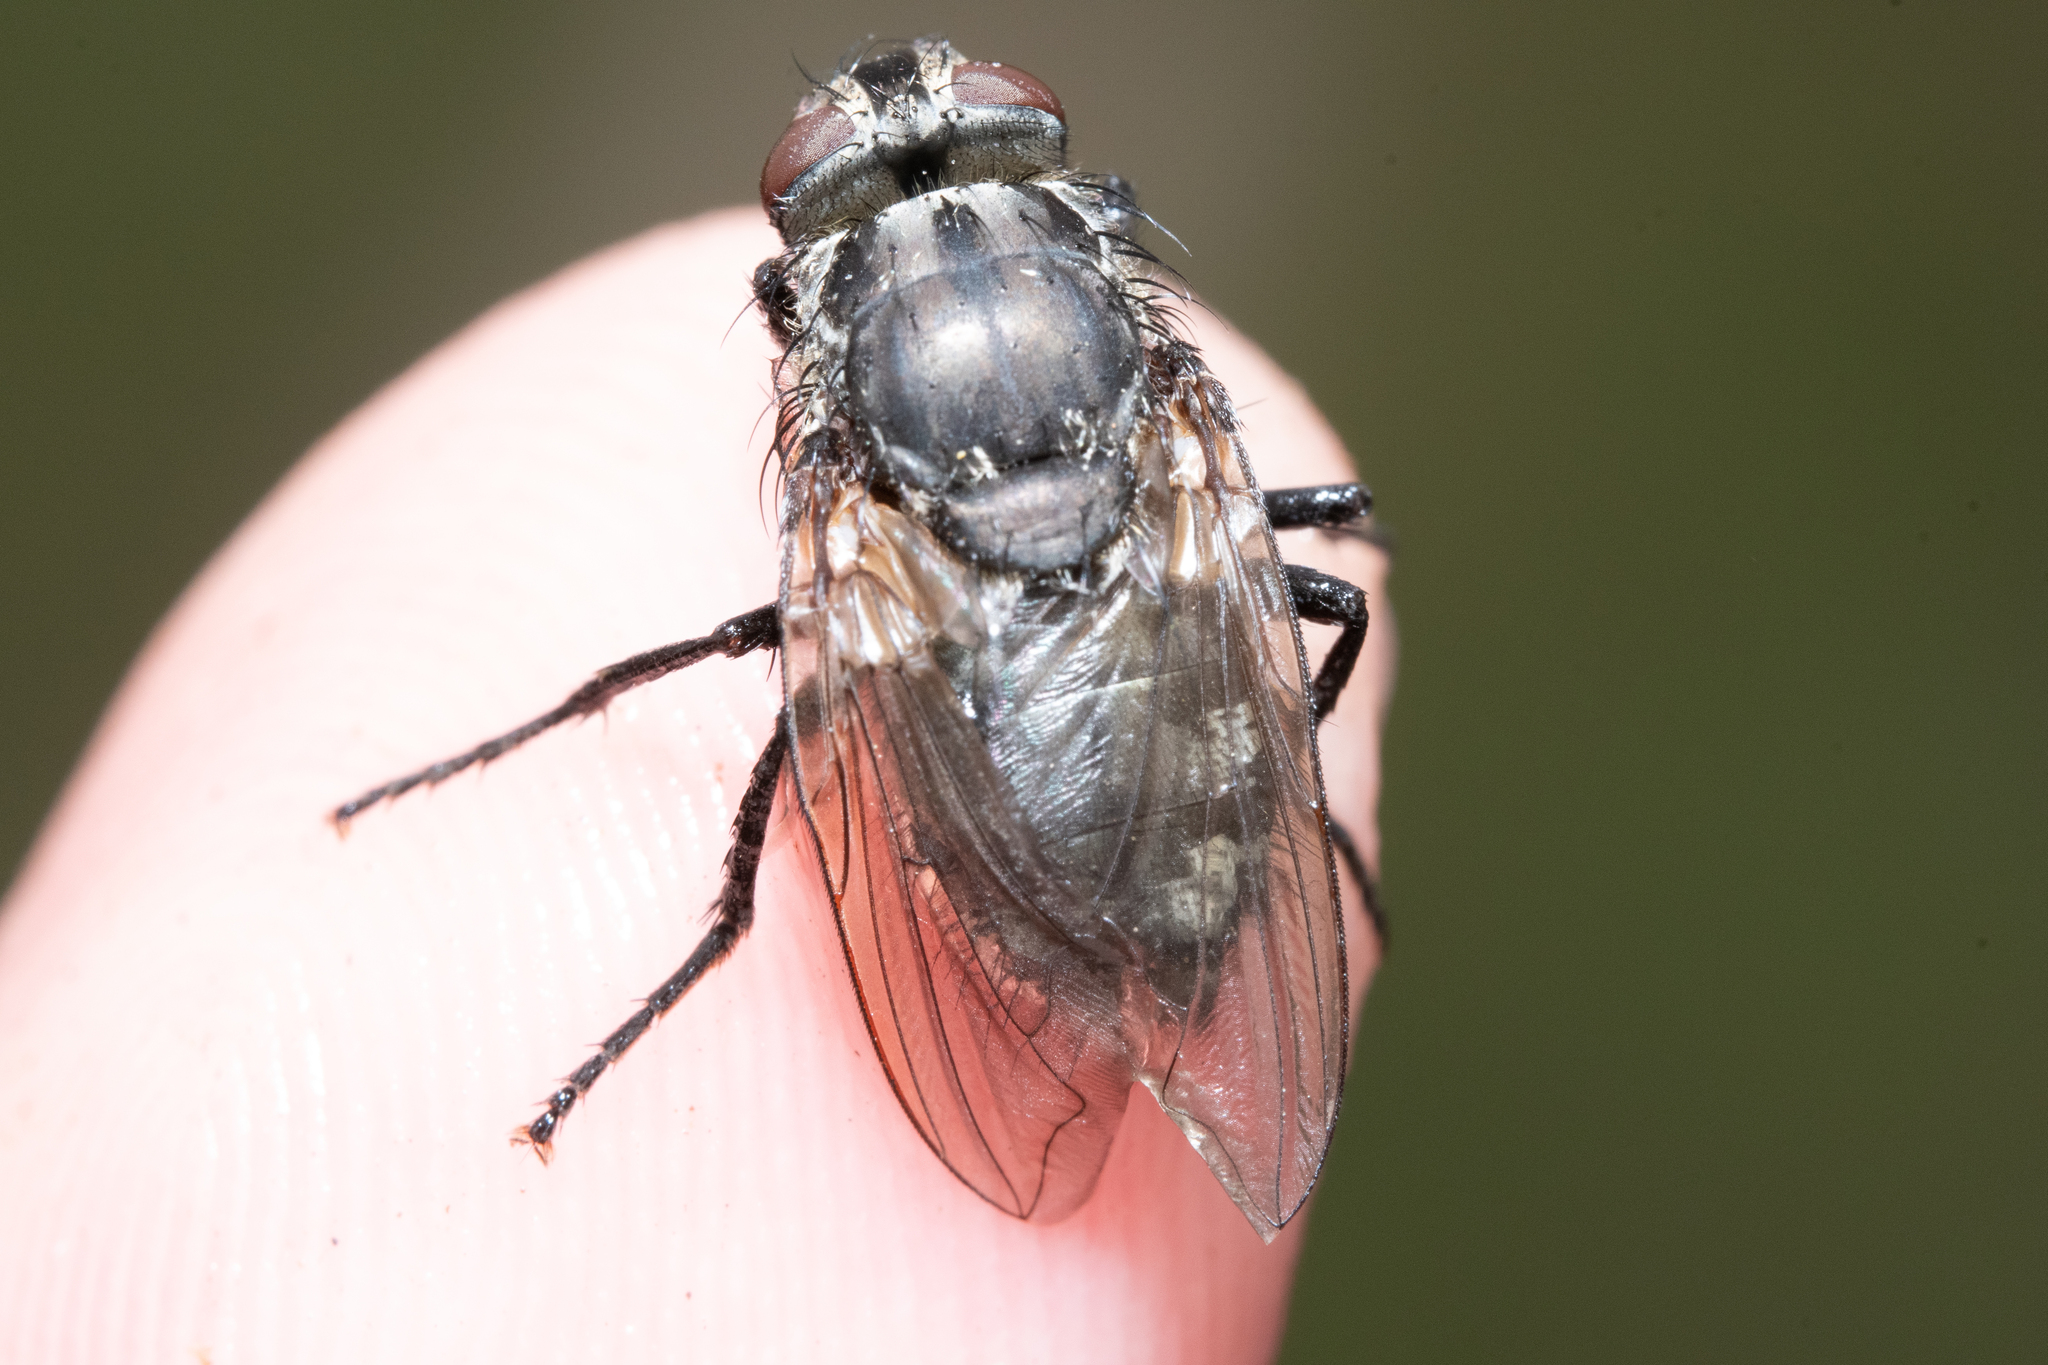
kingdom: Animalia
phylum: Arthropoda
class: Insecta
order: Diptera
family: Polleniidae
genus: Pollenia
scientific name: Pollenia vagabunda
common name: Vagabund cluster fly
